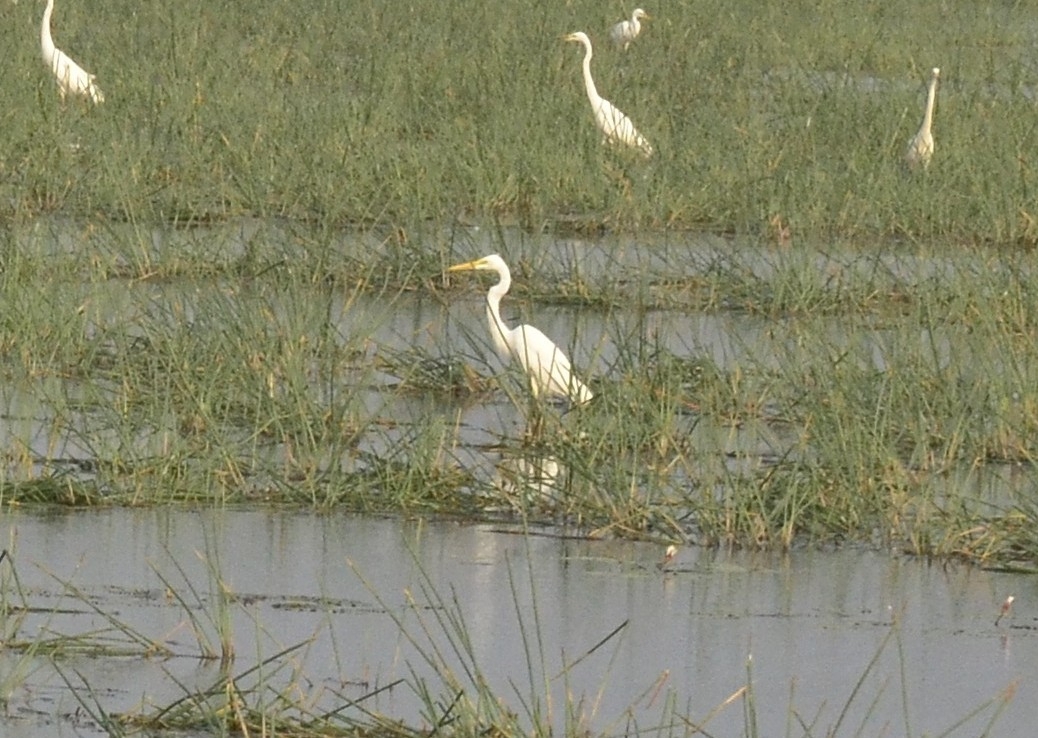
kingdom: Animalia
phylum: Chordata
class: Aves
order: Pelecaniformes
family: Ardeidae
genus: Egretta
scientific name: Egretta intermedia
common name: Intermediate egret
